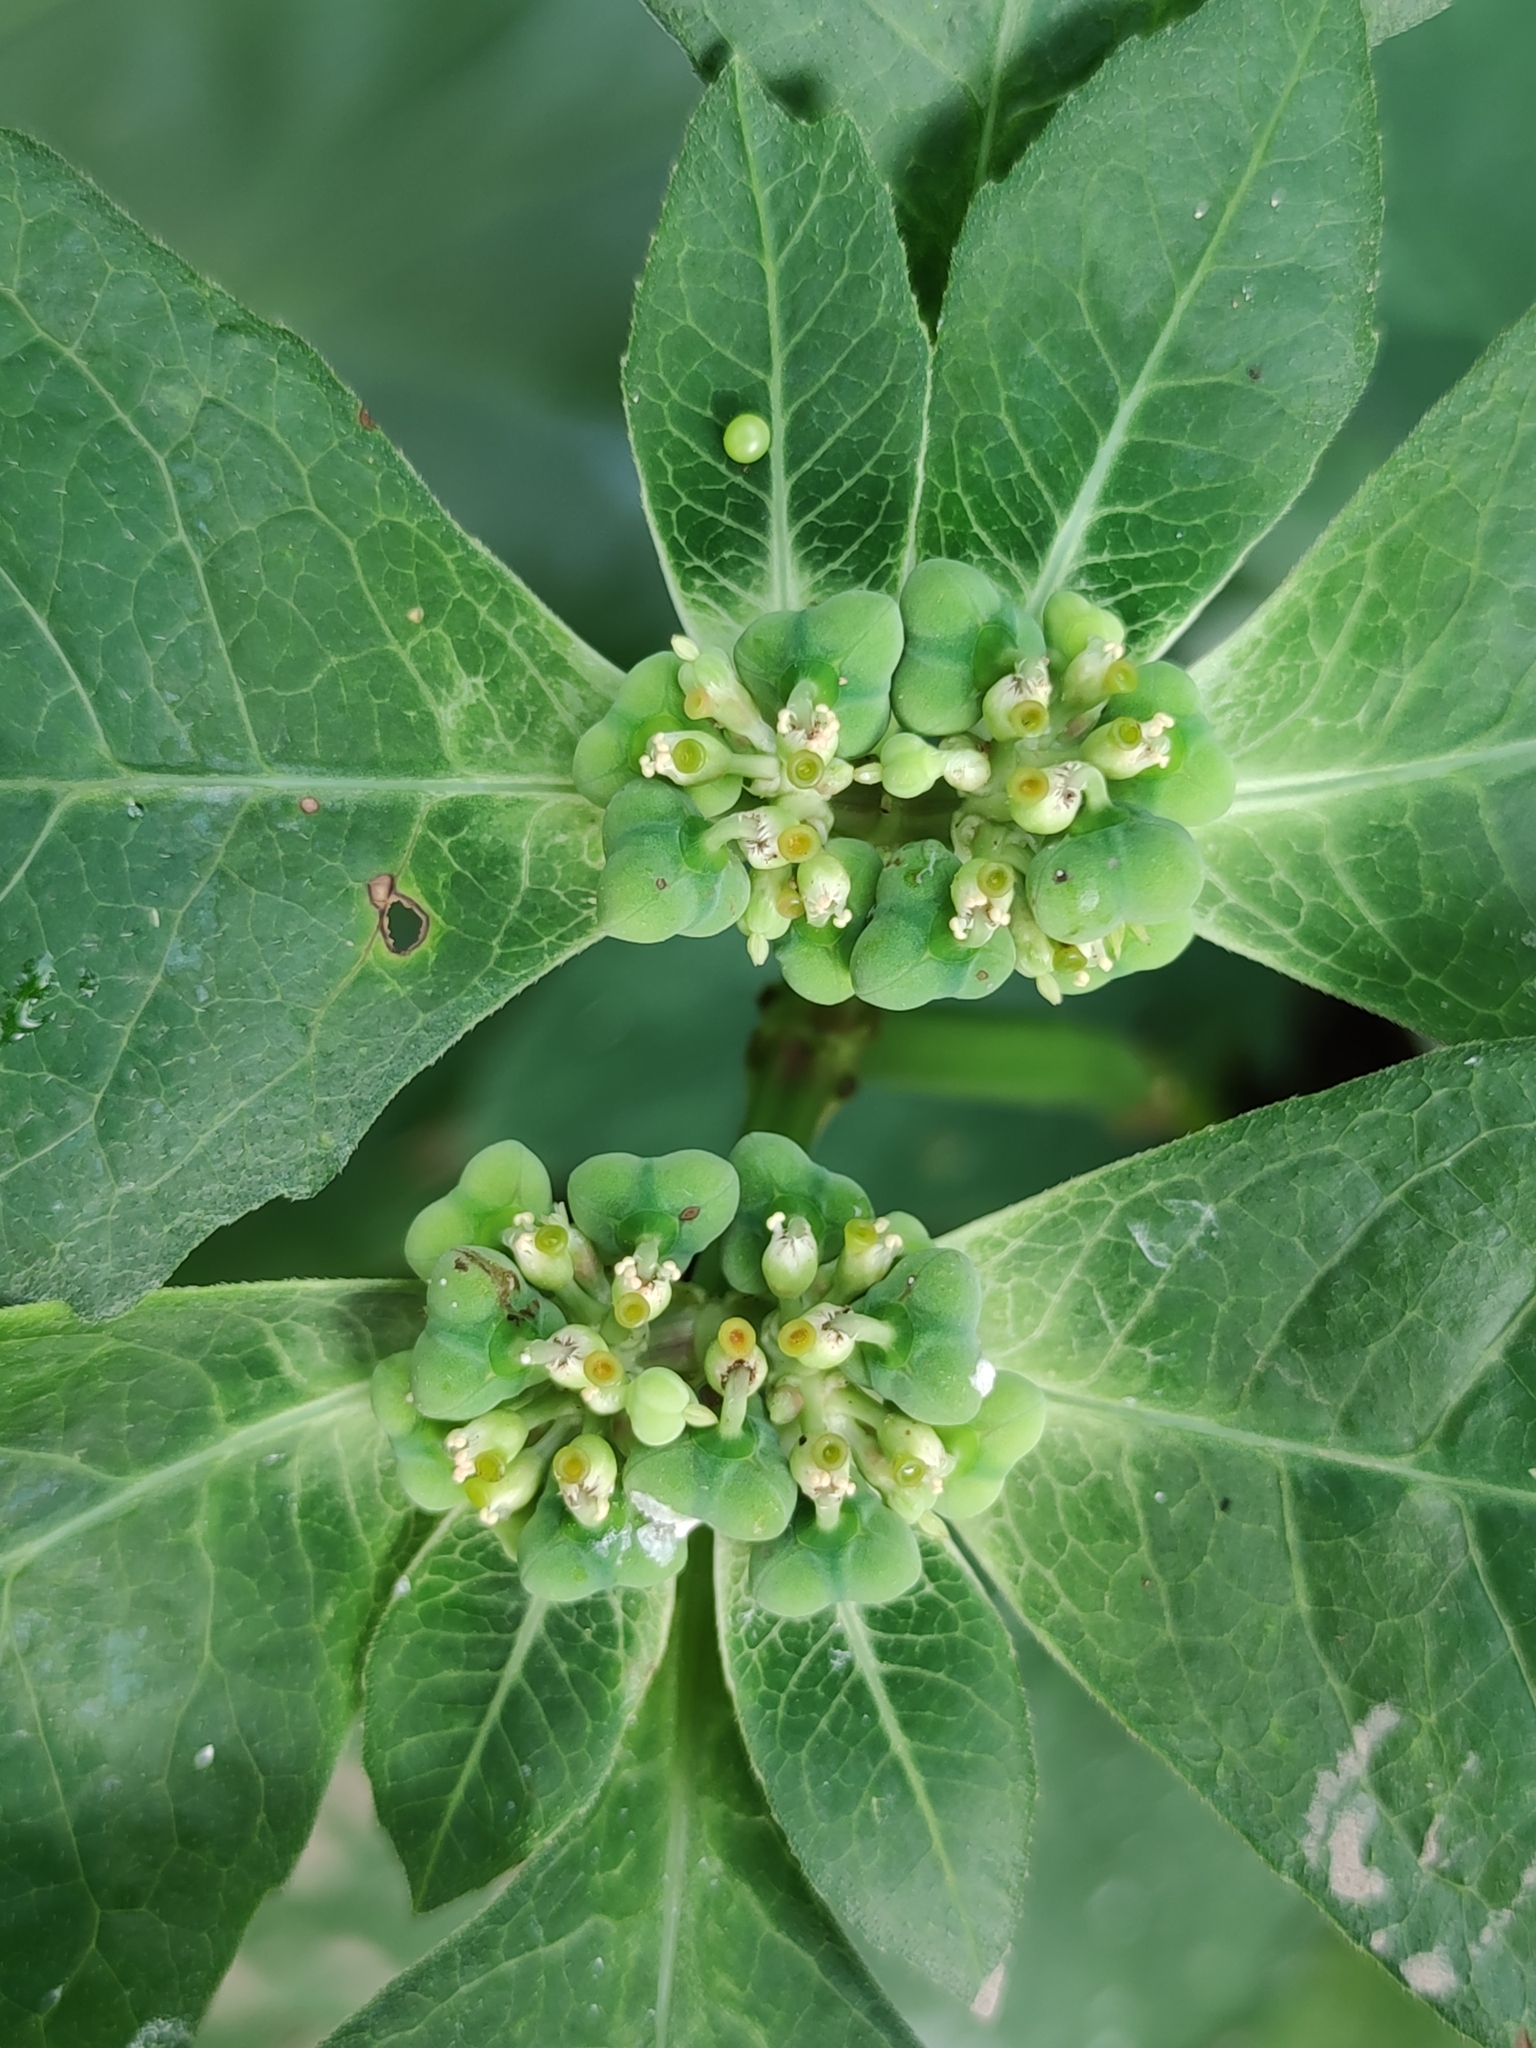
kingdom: Plantae
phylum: Tracheophyta
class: Magnoliopsida
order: Malpighiales
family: Euphorbiaceae
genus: Euphorbia
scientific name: Euphorbia heterophylla
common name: Mexican fireplant
